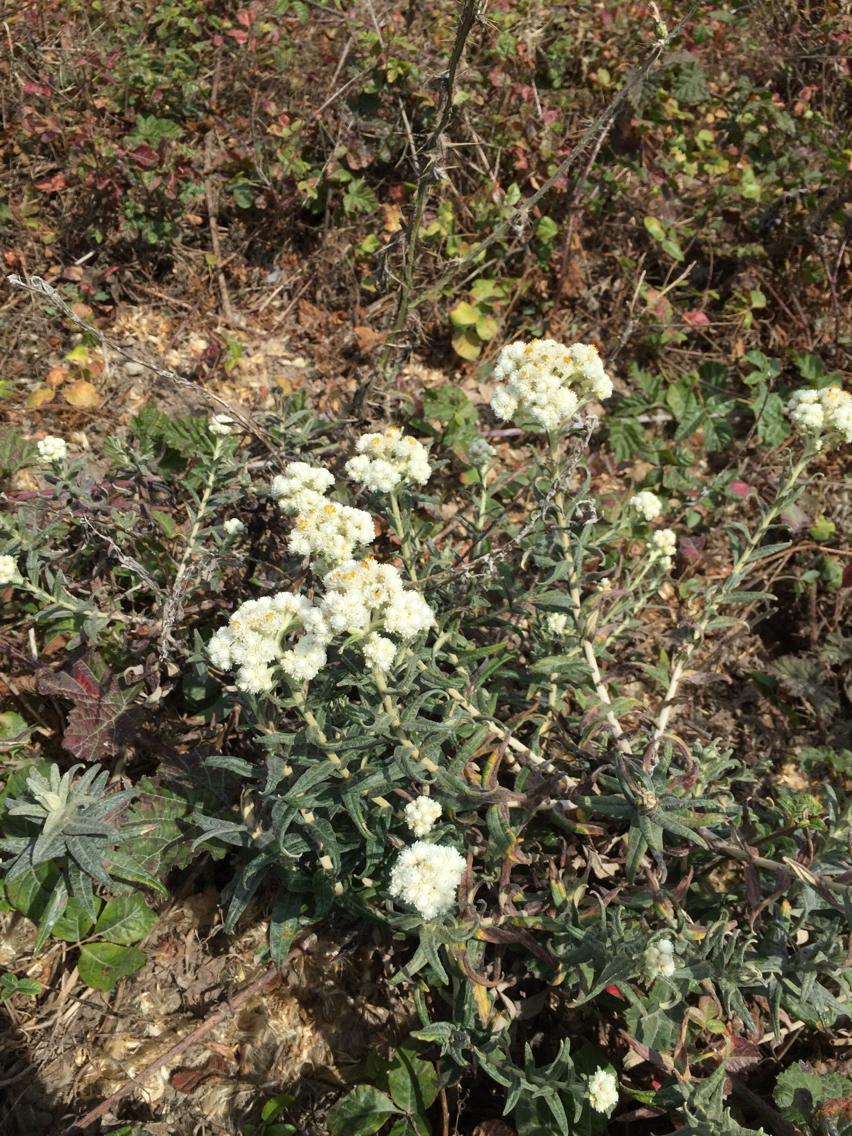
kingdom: Plantae
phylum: Tracheophyta
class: Magnoliopsida
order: Asterales
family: Asteraceae
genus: Anaphalis
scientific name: Anaphalis margaritacea
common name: Pearly everlasting
